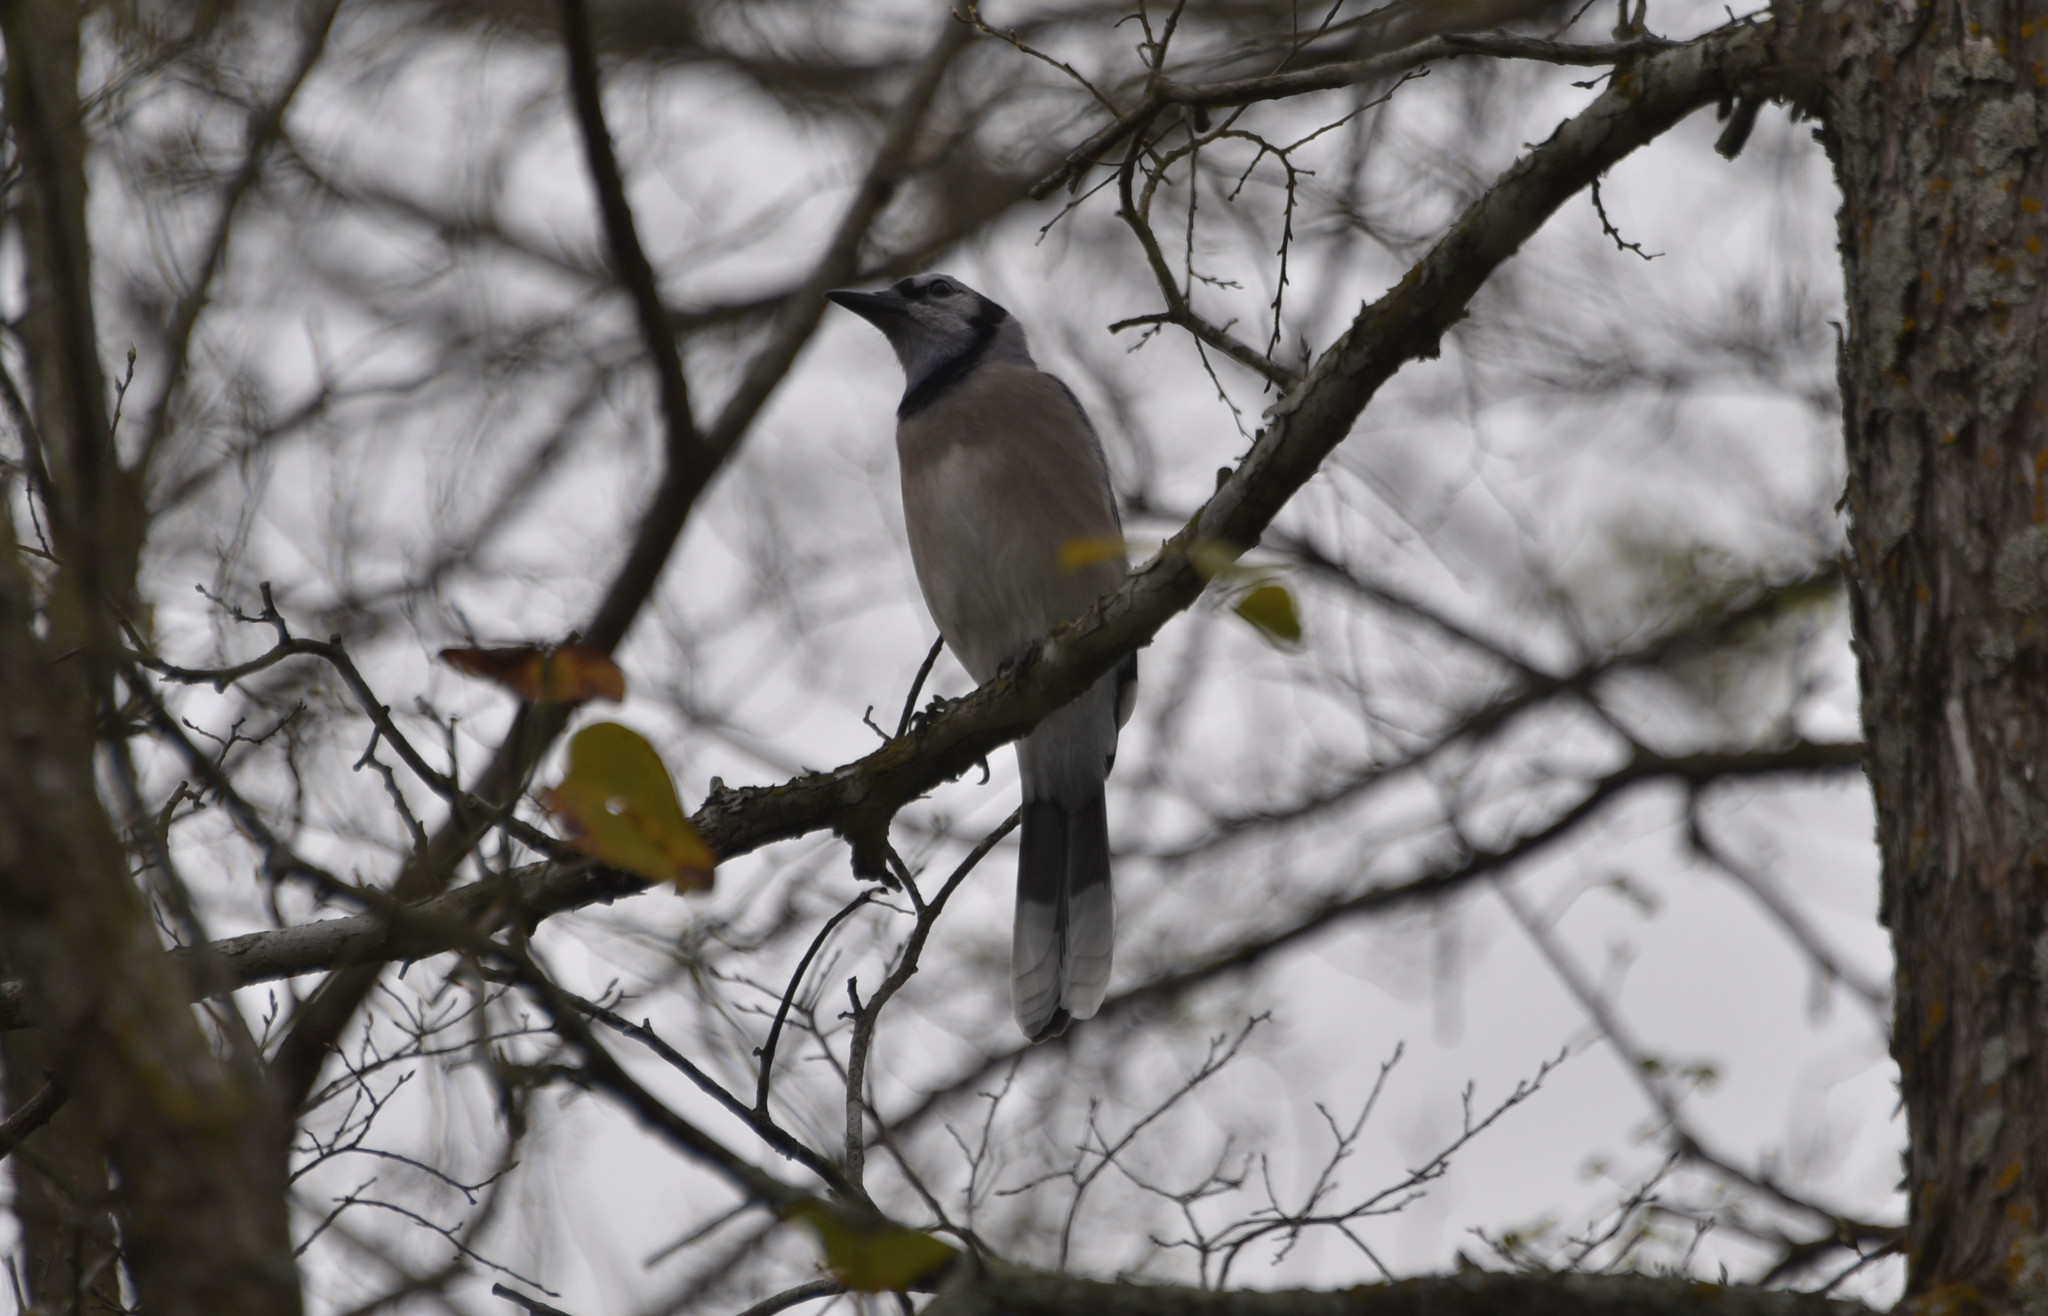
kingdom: Animalia
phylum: Chordata
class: Aves
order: Passeriformes
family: Corvidae
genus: Cyanocitta
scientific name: Cyanocitta cristata
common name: Blue jay
